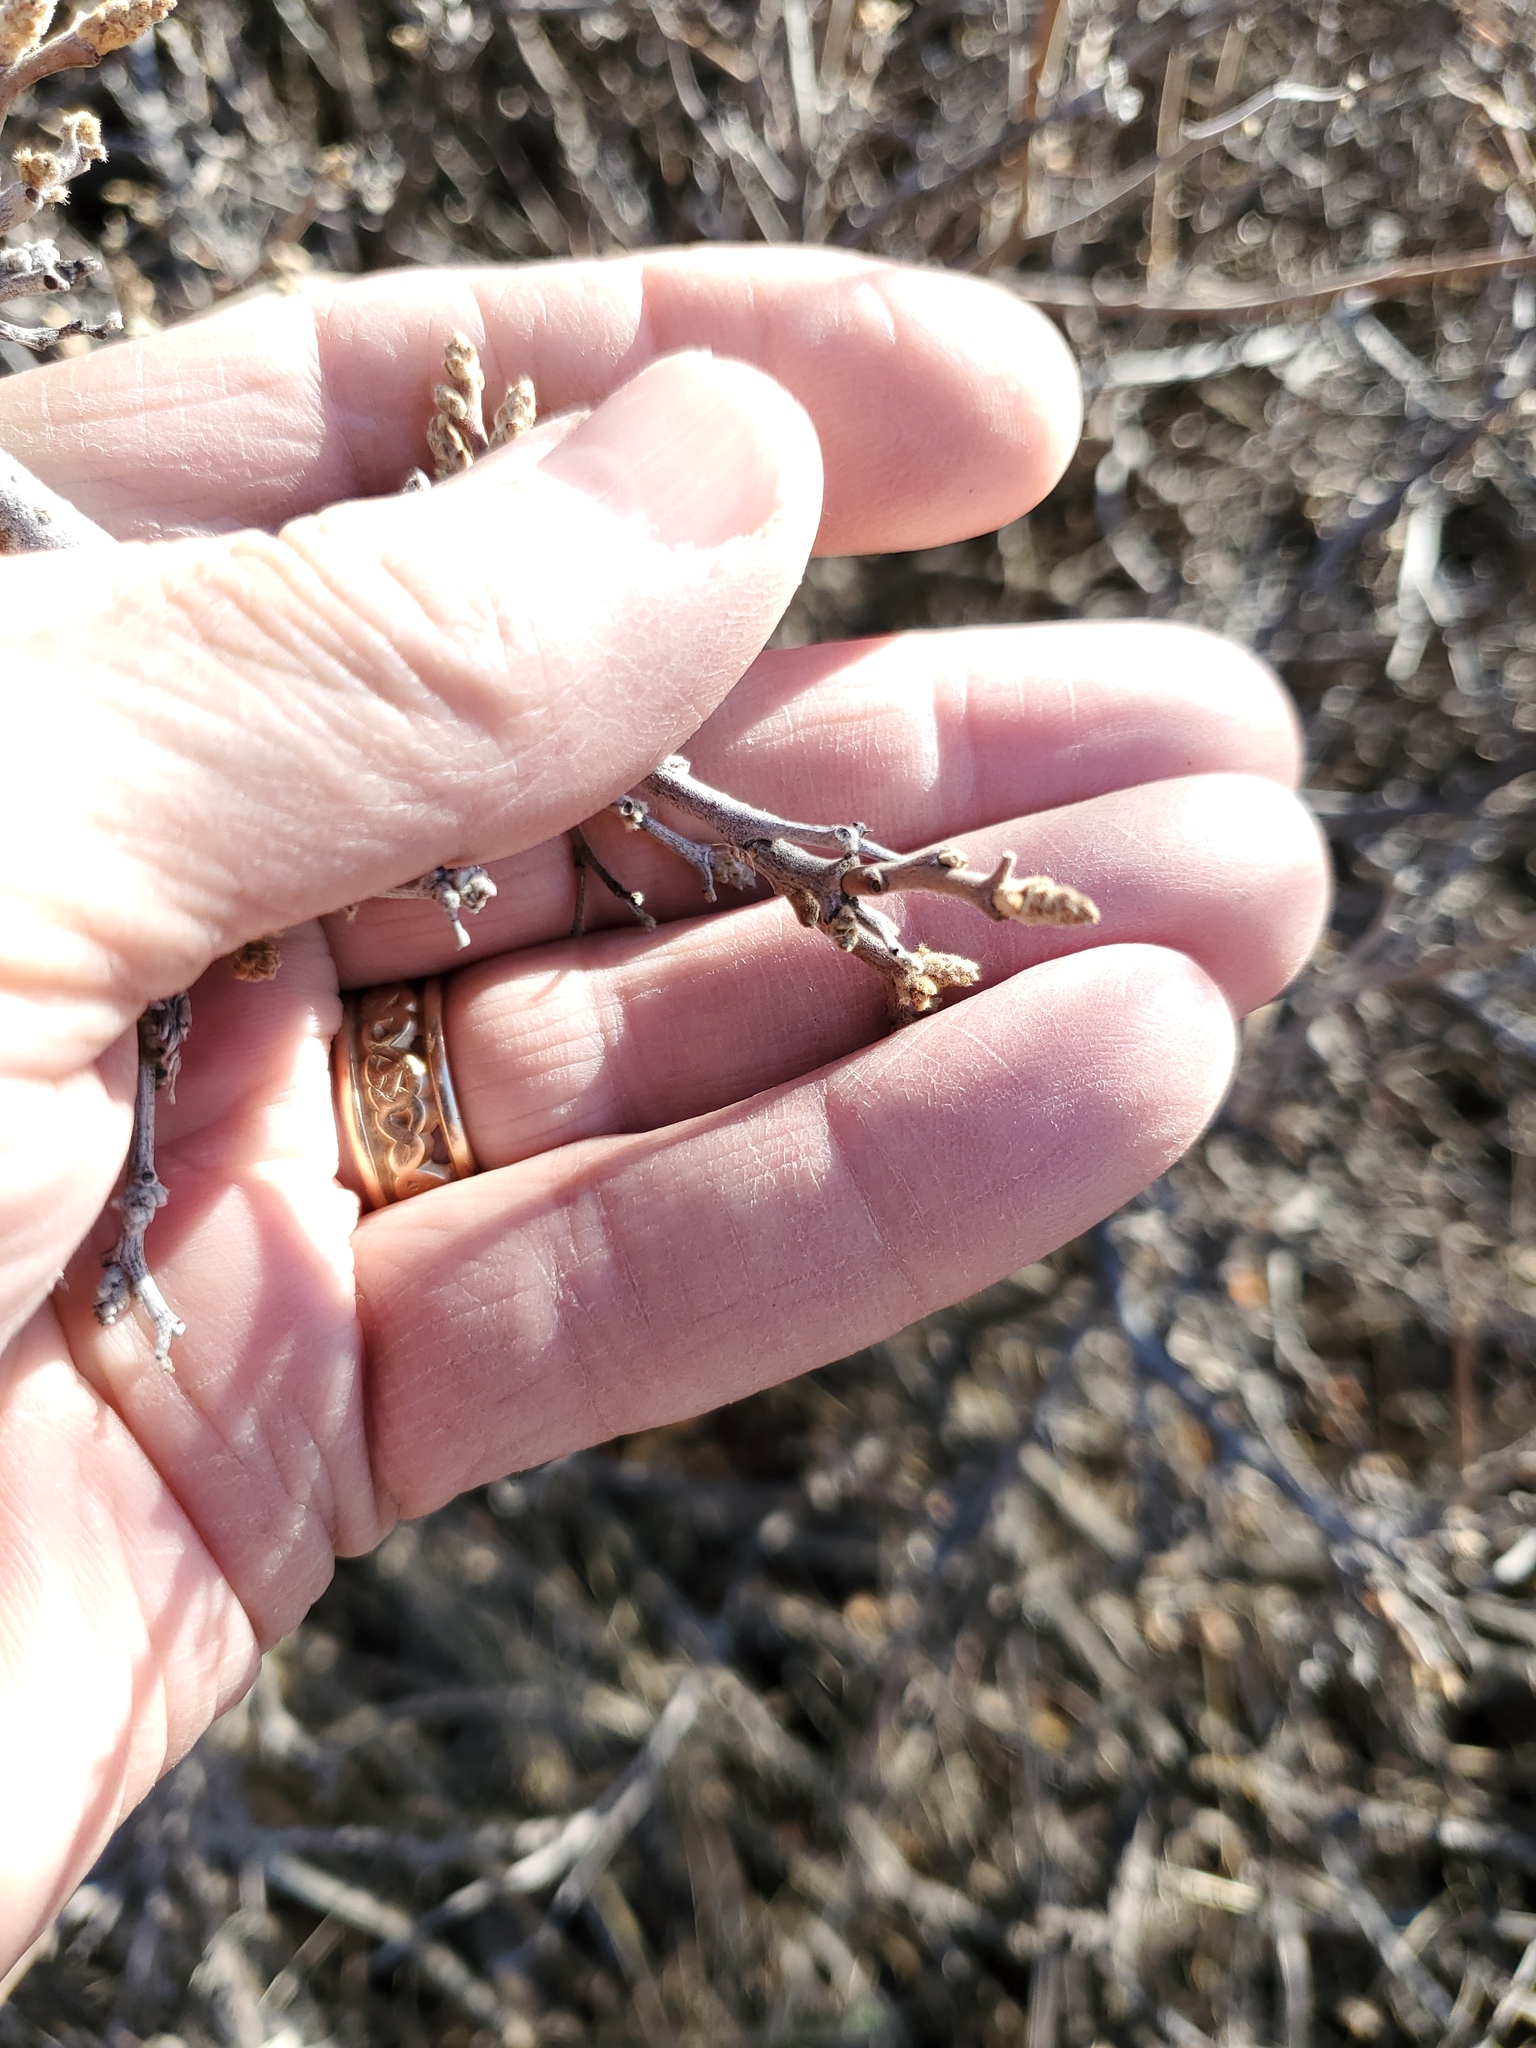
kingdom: Plantae
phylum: Tracheophyta
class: Magnoliopsida
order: Sapindales
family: Anacardiaceae
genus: Rhus
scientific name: Rhus aromatica
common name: Aromatic sumac
